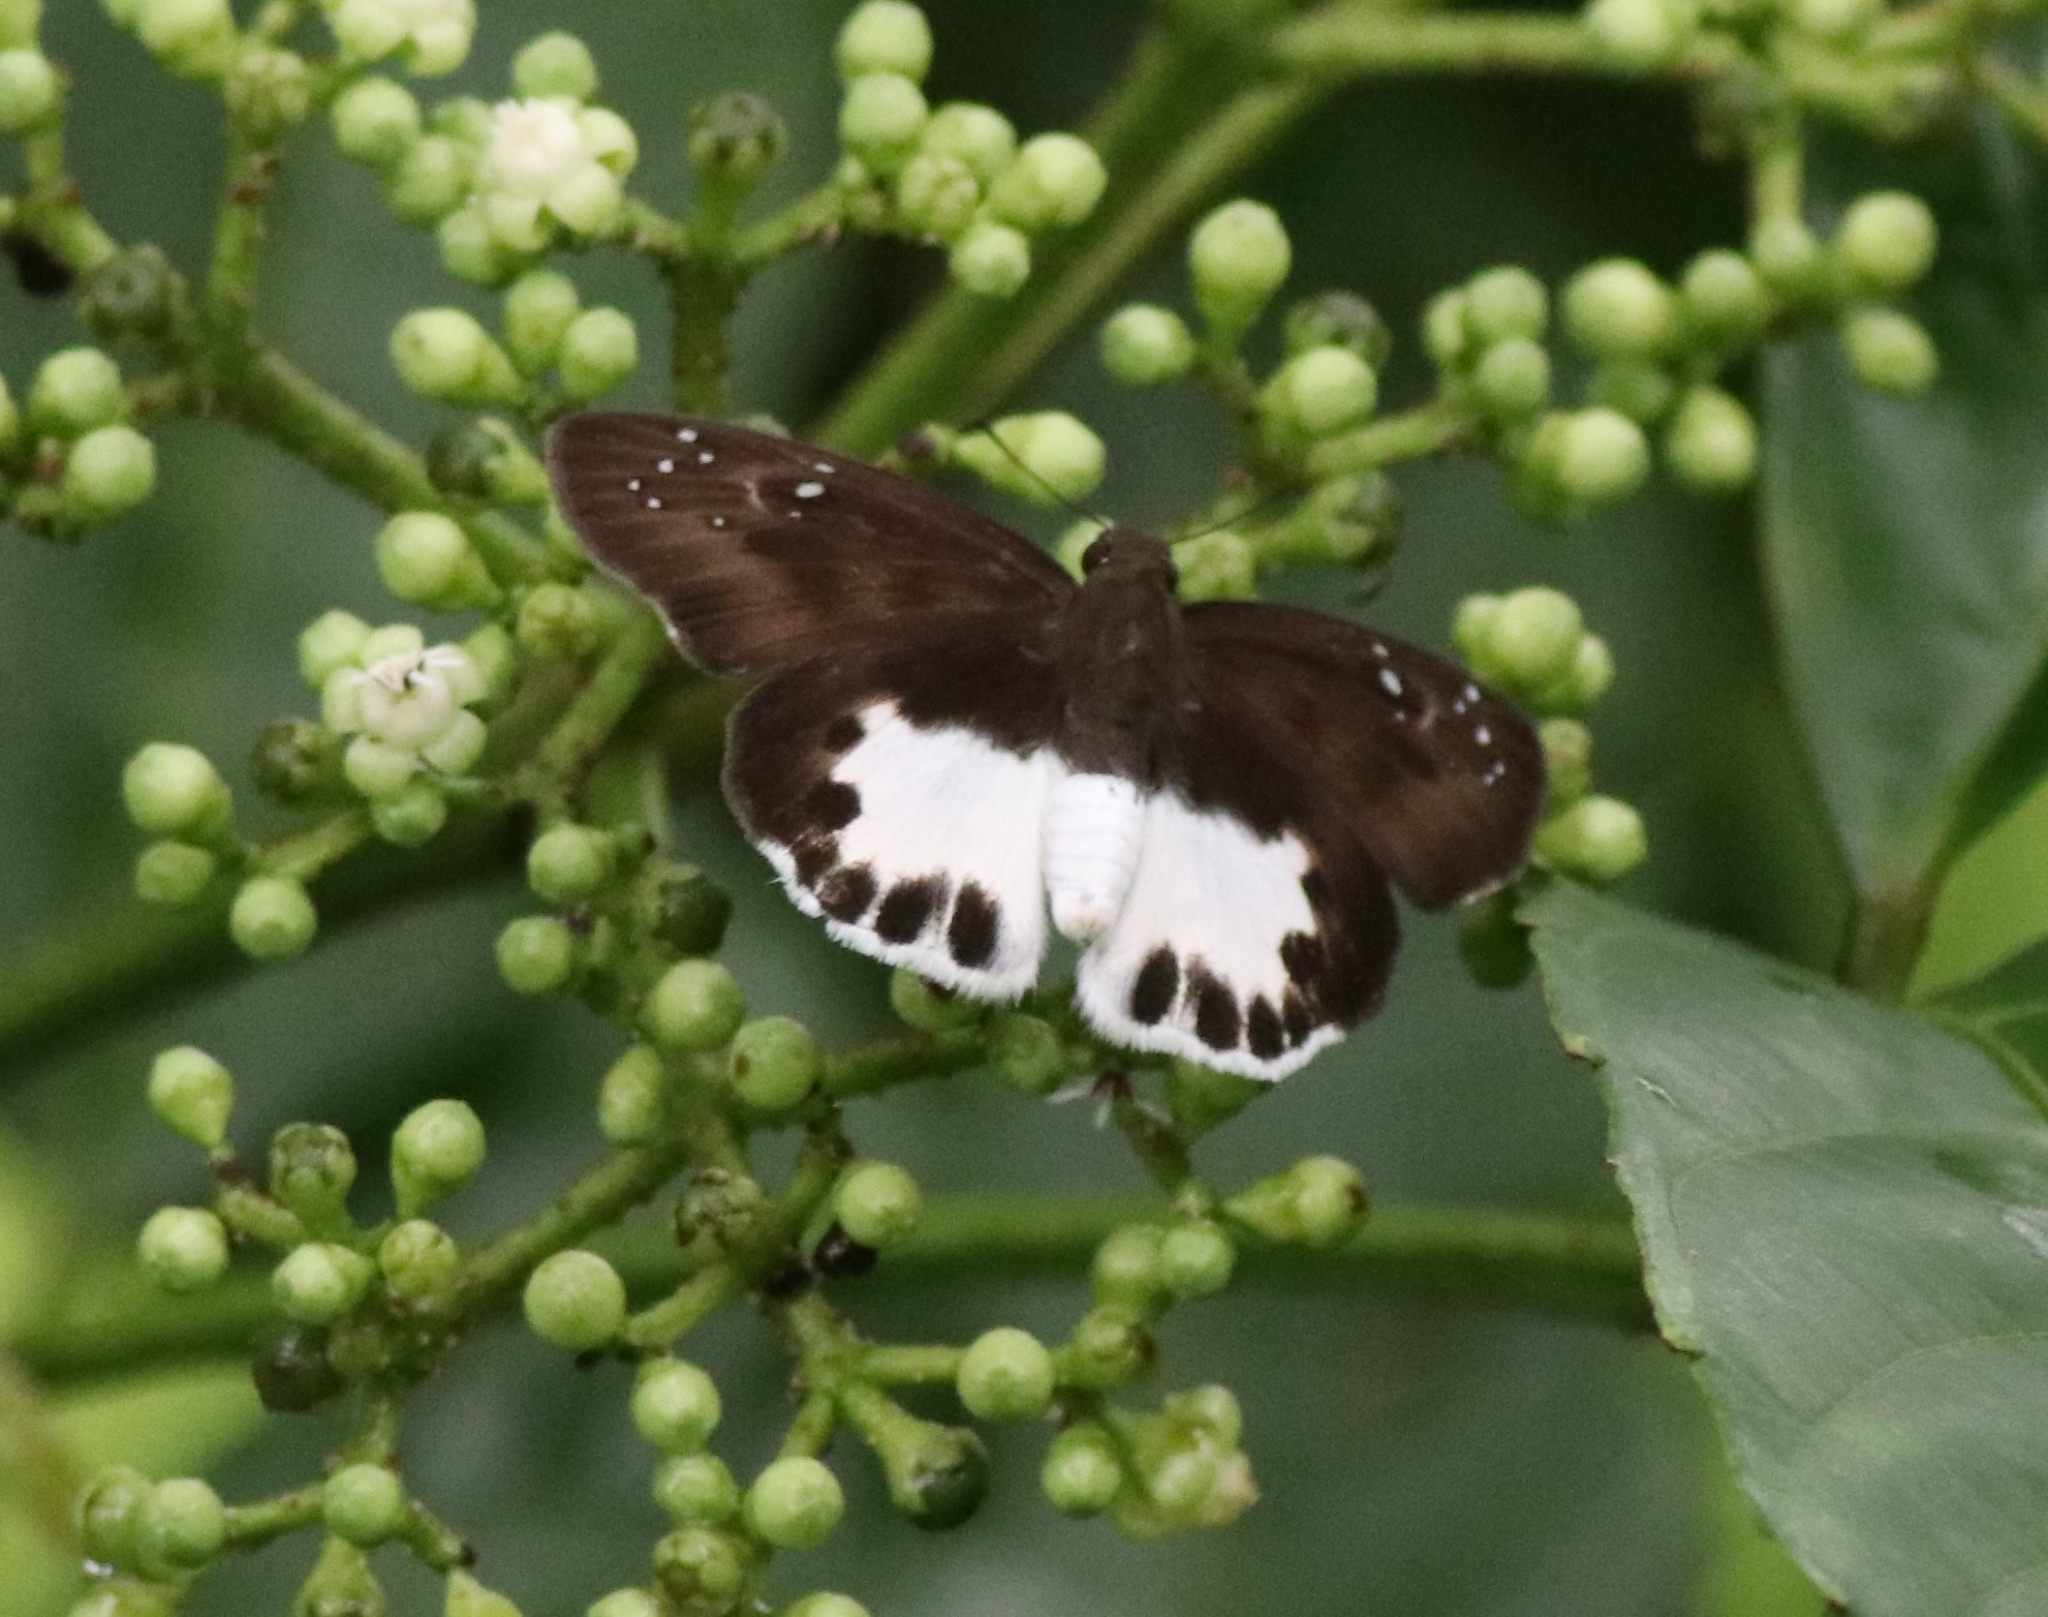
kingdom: Animalia
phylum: Arthropoda
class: Insecta
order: Lepidoptera
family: Hesperiidae
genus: Tagiades
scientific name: Tagiades litigiosa
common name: Water snow flat
